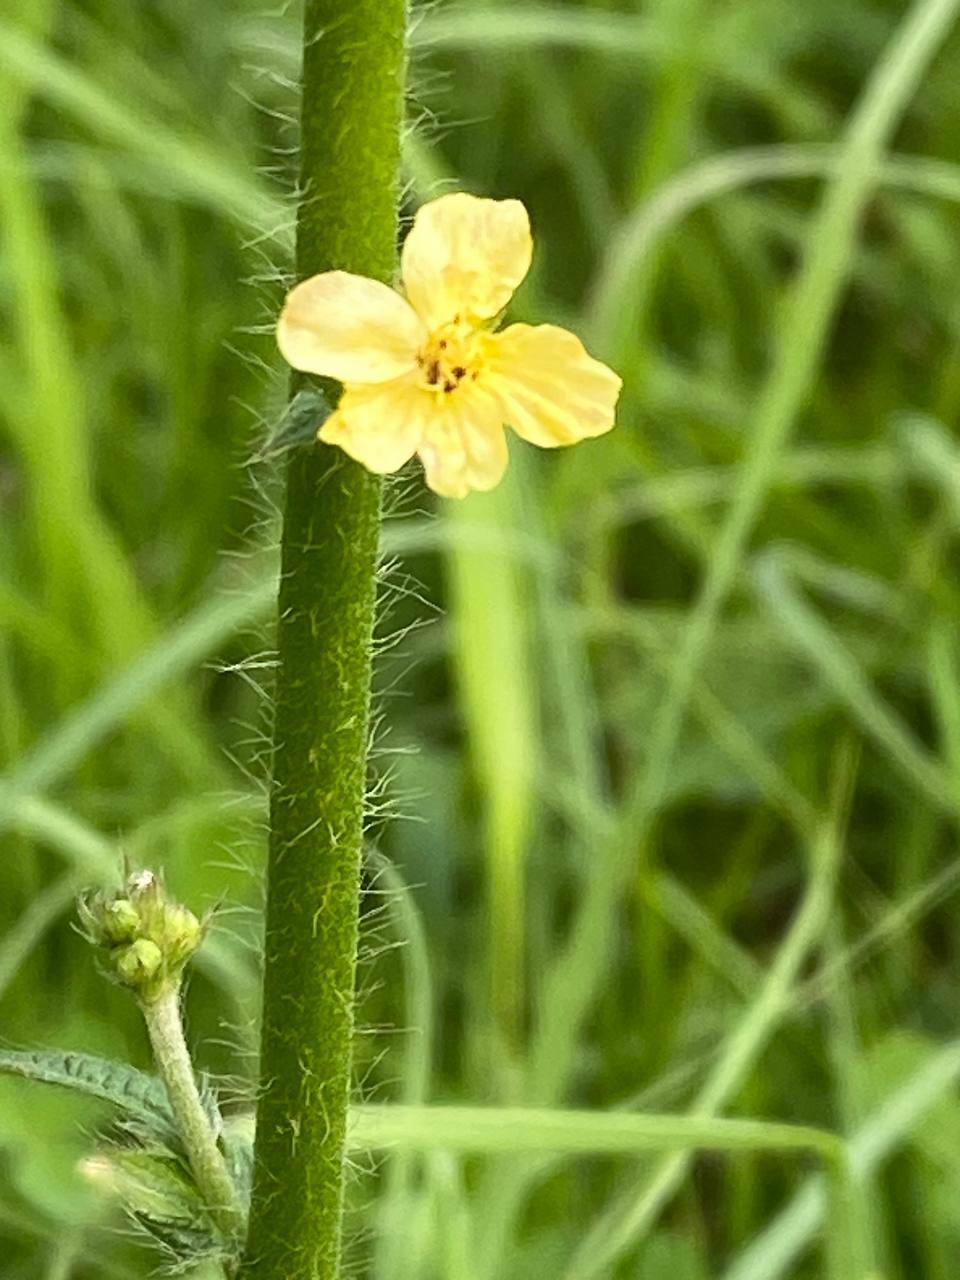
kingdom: Plantae
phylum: Tracheophyta
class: Magnoliopsida
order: Rosales
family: Rosaceae
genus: Agrimonia
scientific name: Agrimonia eupatoria
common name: Agrimony
